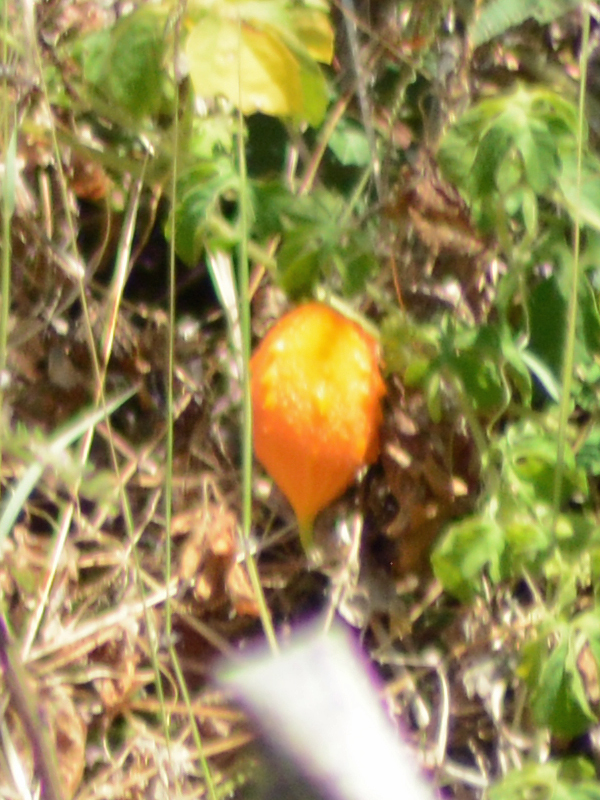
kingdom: Plantae
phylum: Tracheophyta
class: Magnoliopsida
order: Cucurbitales
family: Cucurbitaceae
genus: Momordica
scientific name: Momordica charantia
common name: Balsampear
